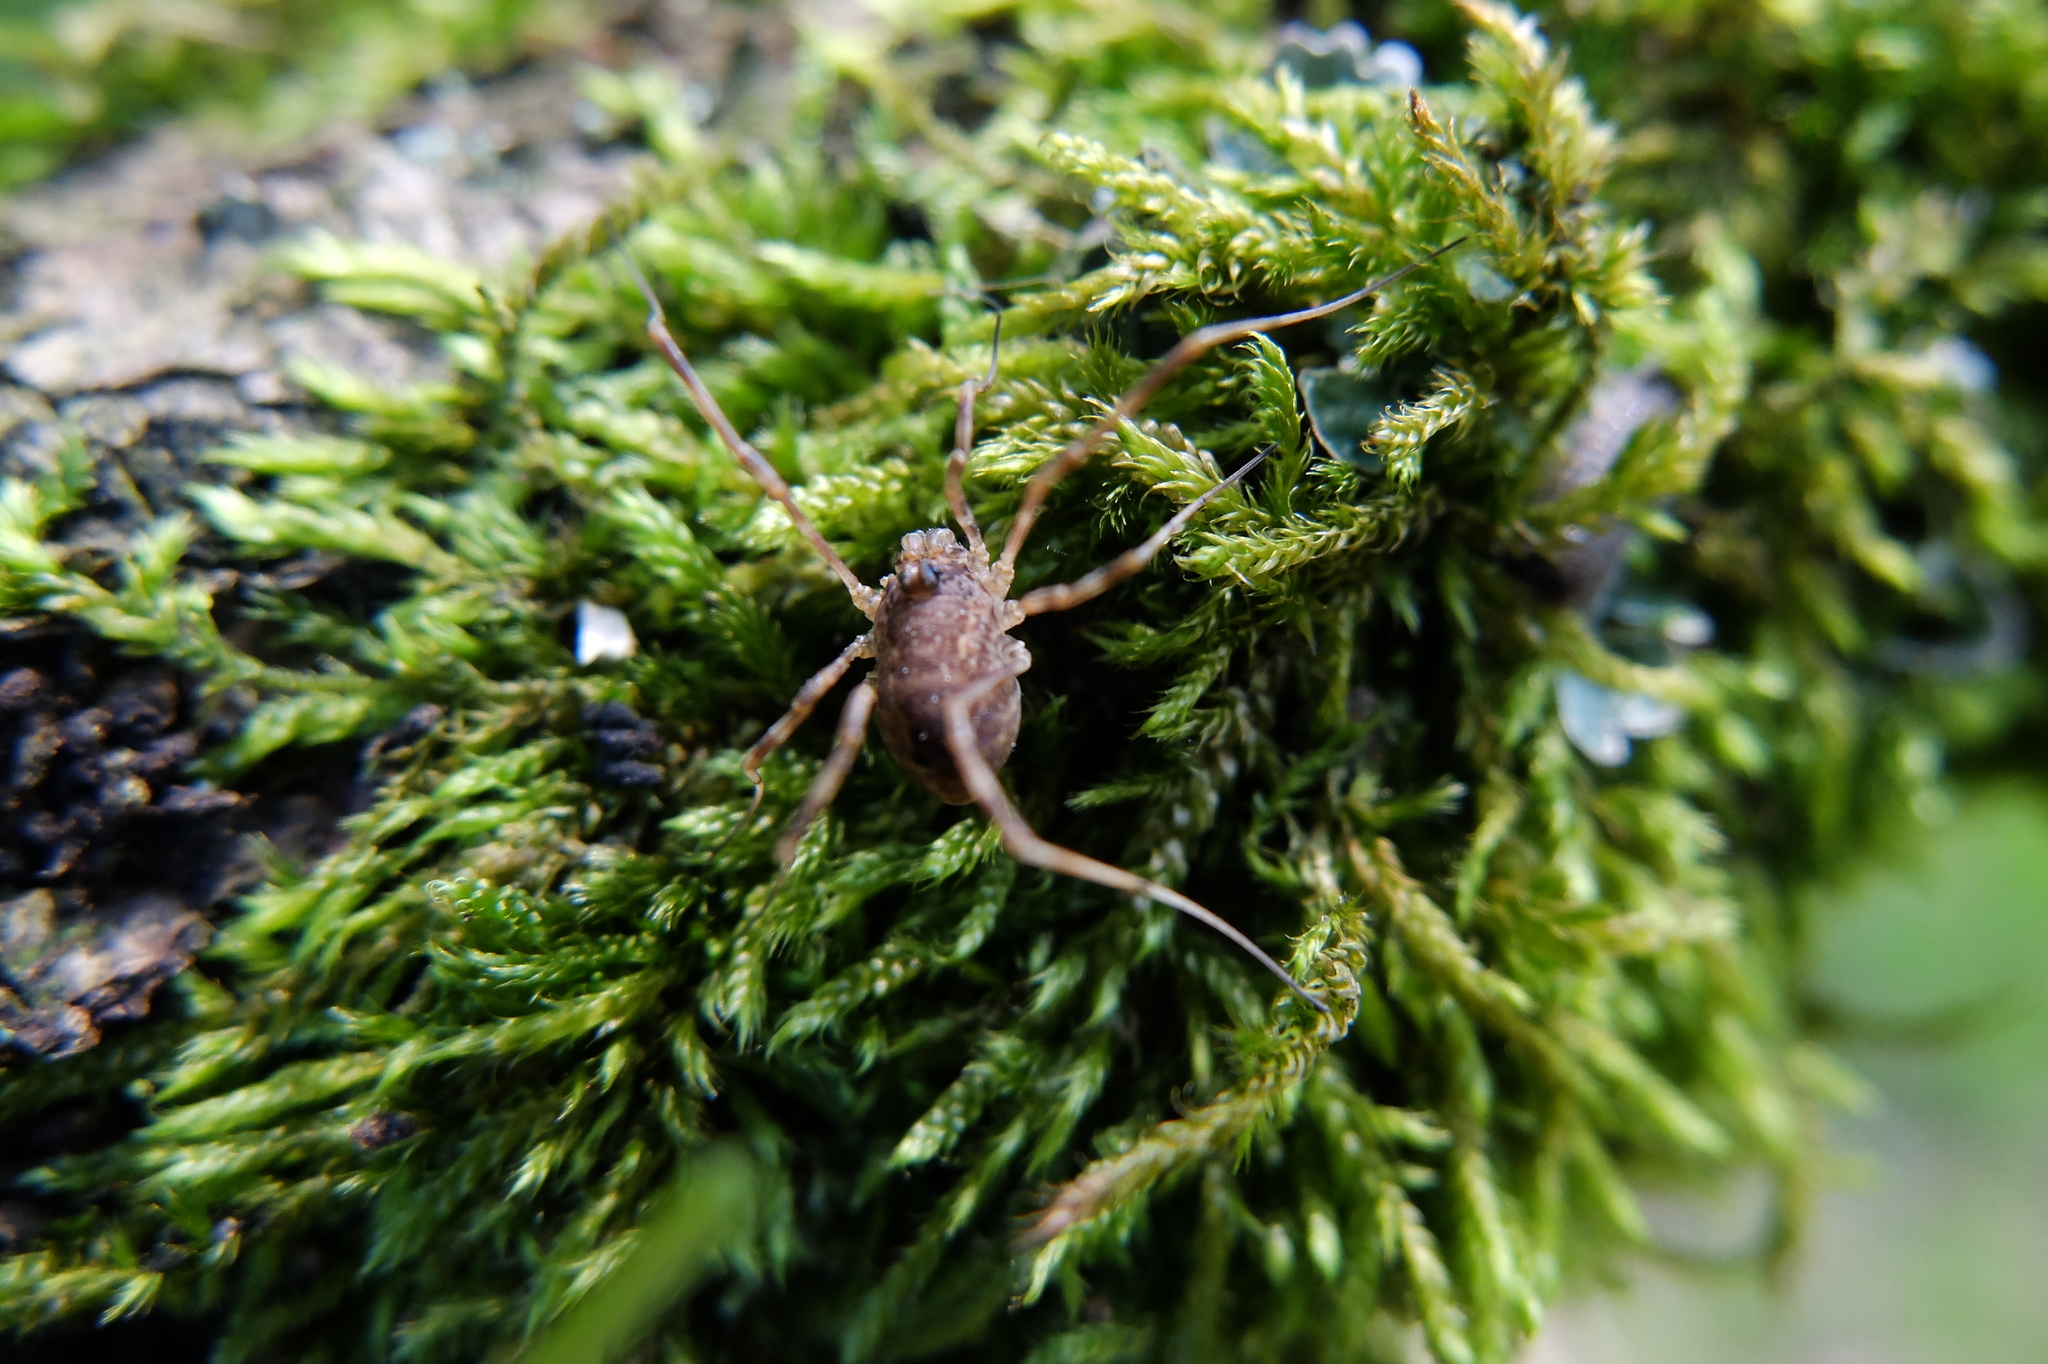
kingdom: Animalia
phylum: Arthropoda
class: Arachnida
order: Opiliones
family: Phalangiidae
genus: Rilaena
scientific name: Rilaena triangularis
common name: Spring harvestman
